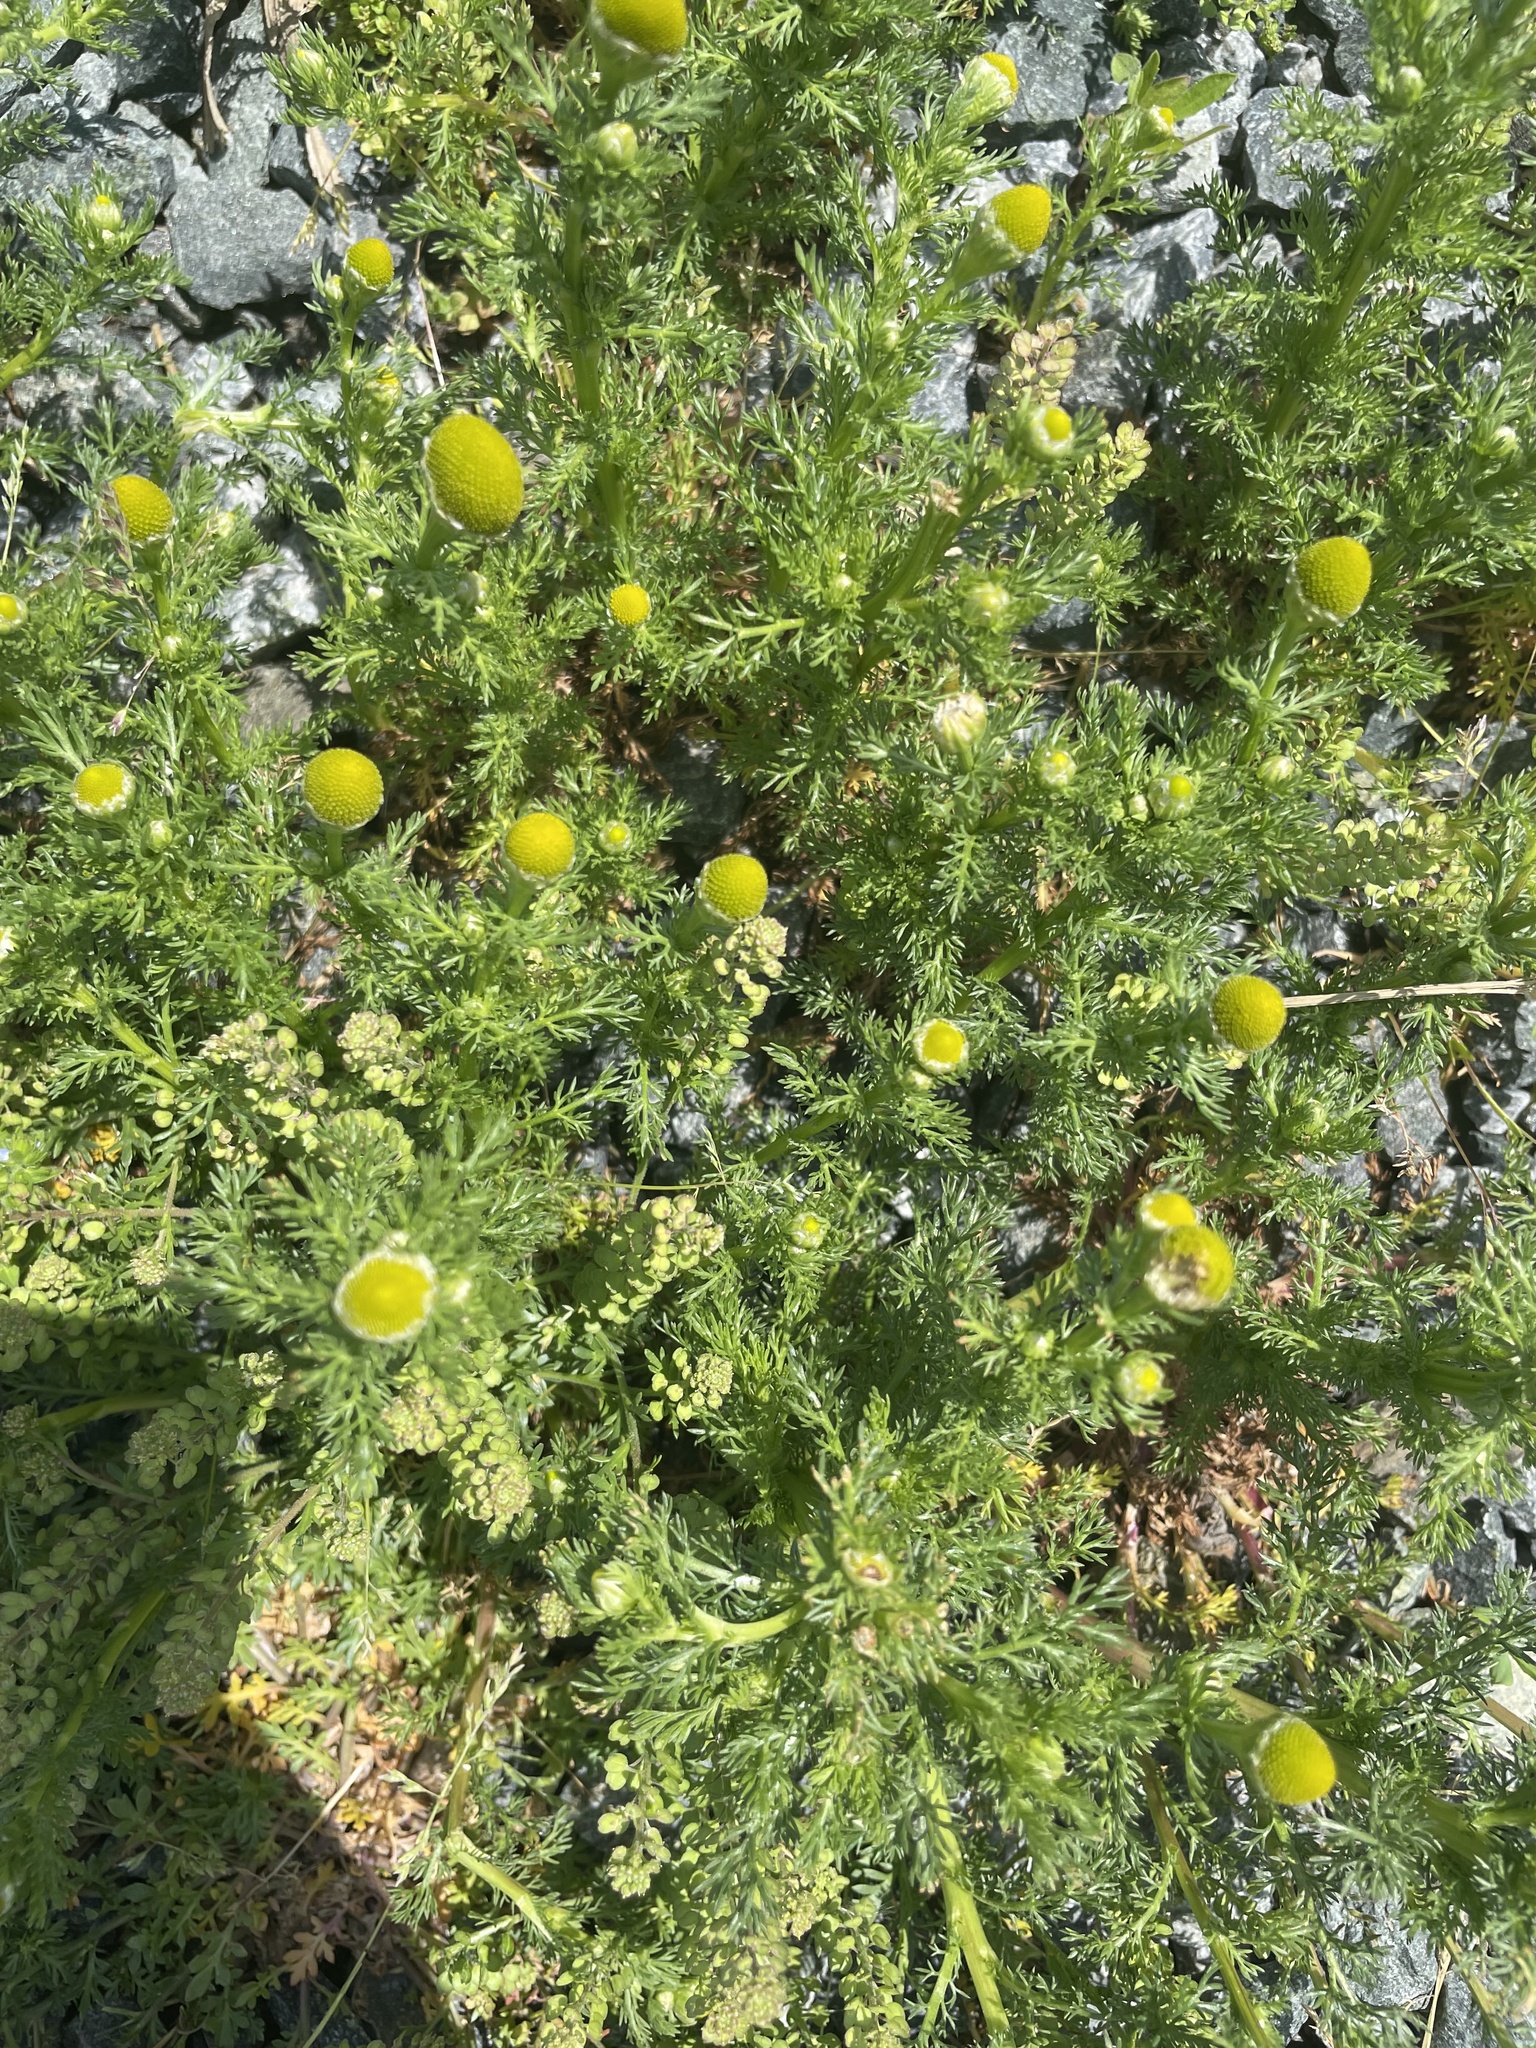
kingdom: Plantae
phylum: Tracheophyta
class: Magnoliopsida
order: Asterales
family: Asteraceae
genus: Matricaria
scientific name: Matricaria discoidea
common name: Disc mayweed
